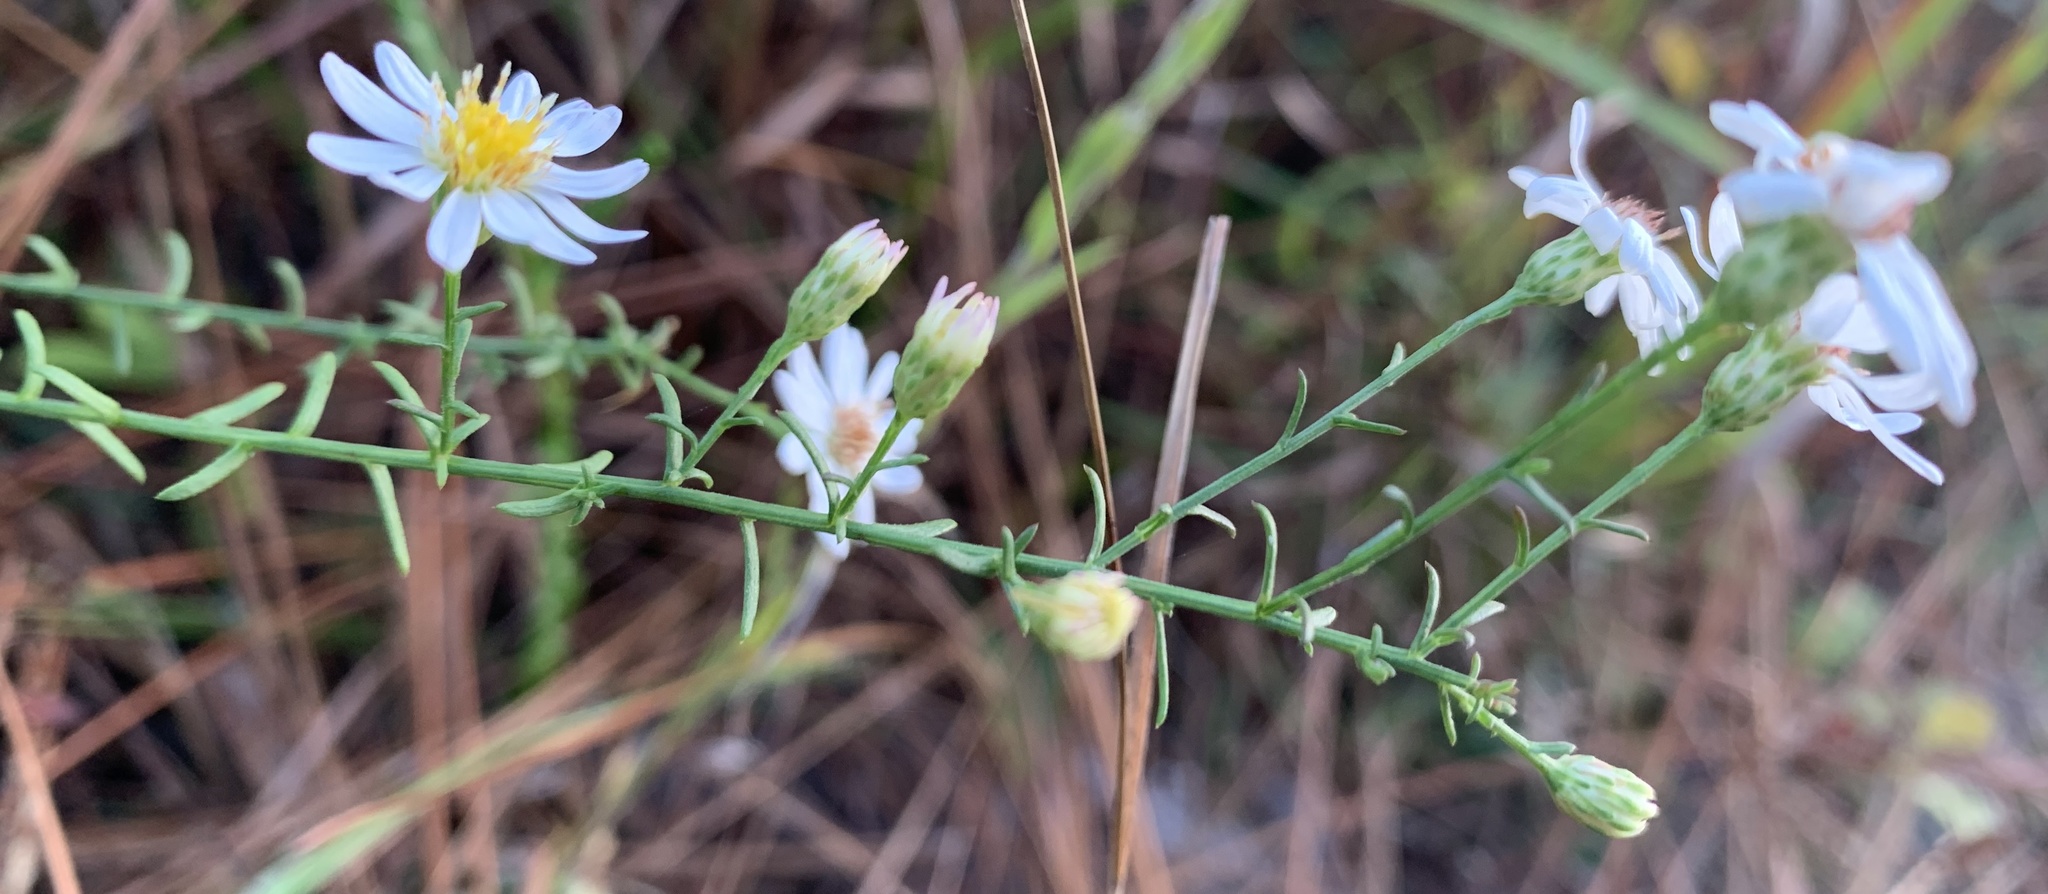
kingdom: Plantae
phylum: Tracheophyta
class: Magnoliopsida
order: Asterales
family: Asteraceae
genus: Symphyotrichum
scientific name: Symphyotrichum dumosum
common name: Bushy aster
